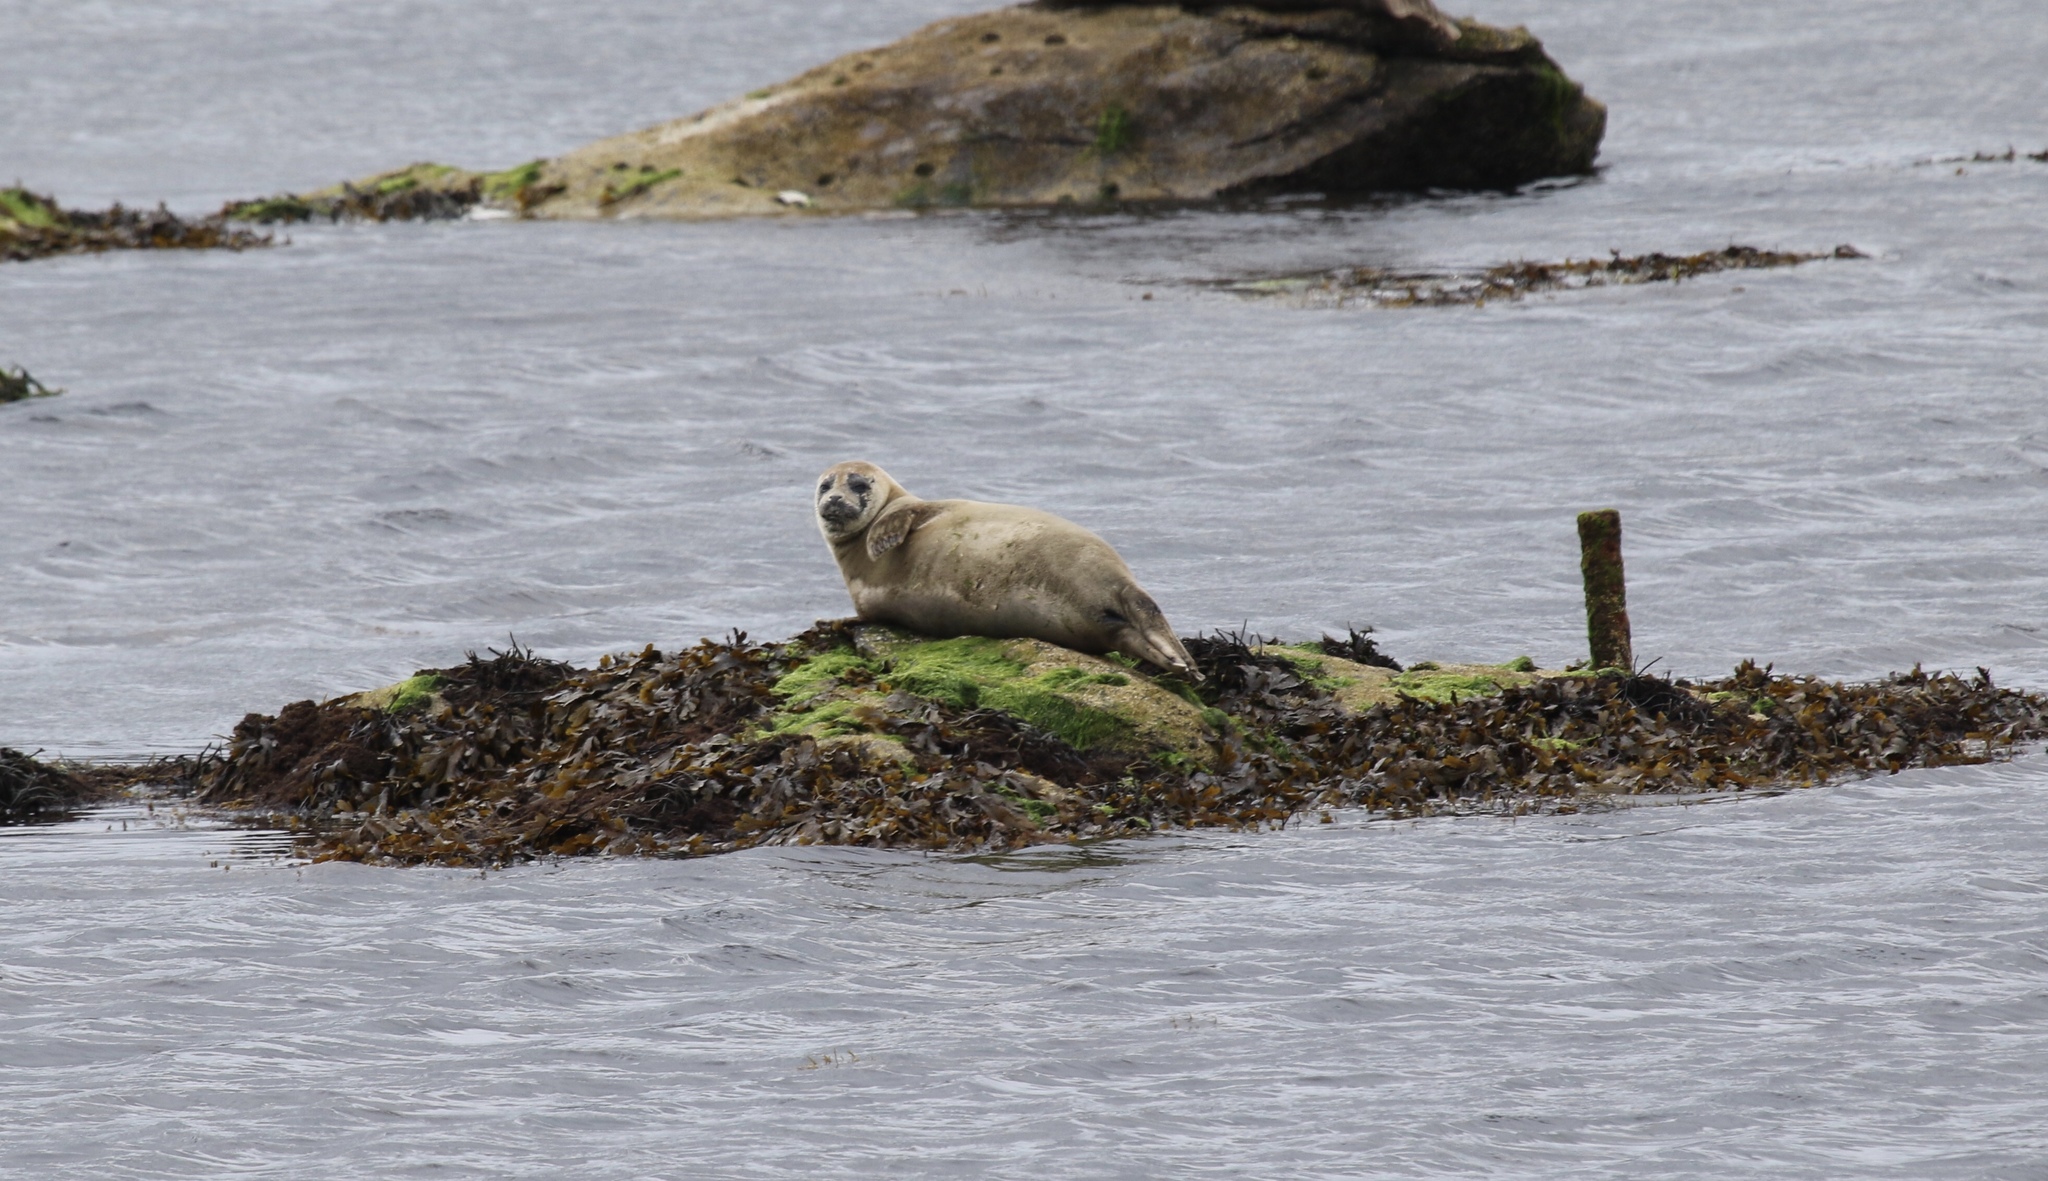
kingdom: Animalia
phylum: Chordata
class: Mammalia
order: Carnivora
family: Phocidae
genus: Phoca
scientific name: Phoca vitulina
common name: Harbor seal
